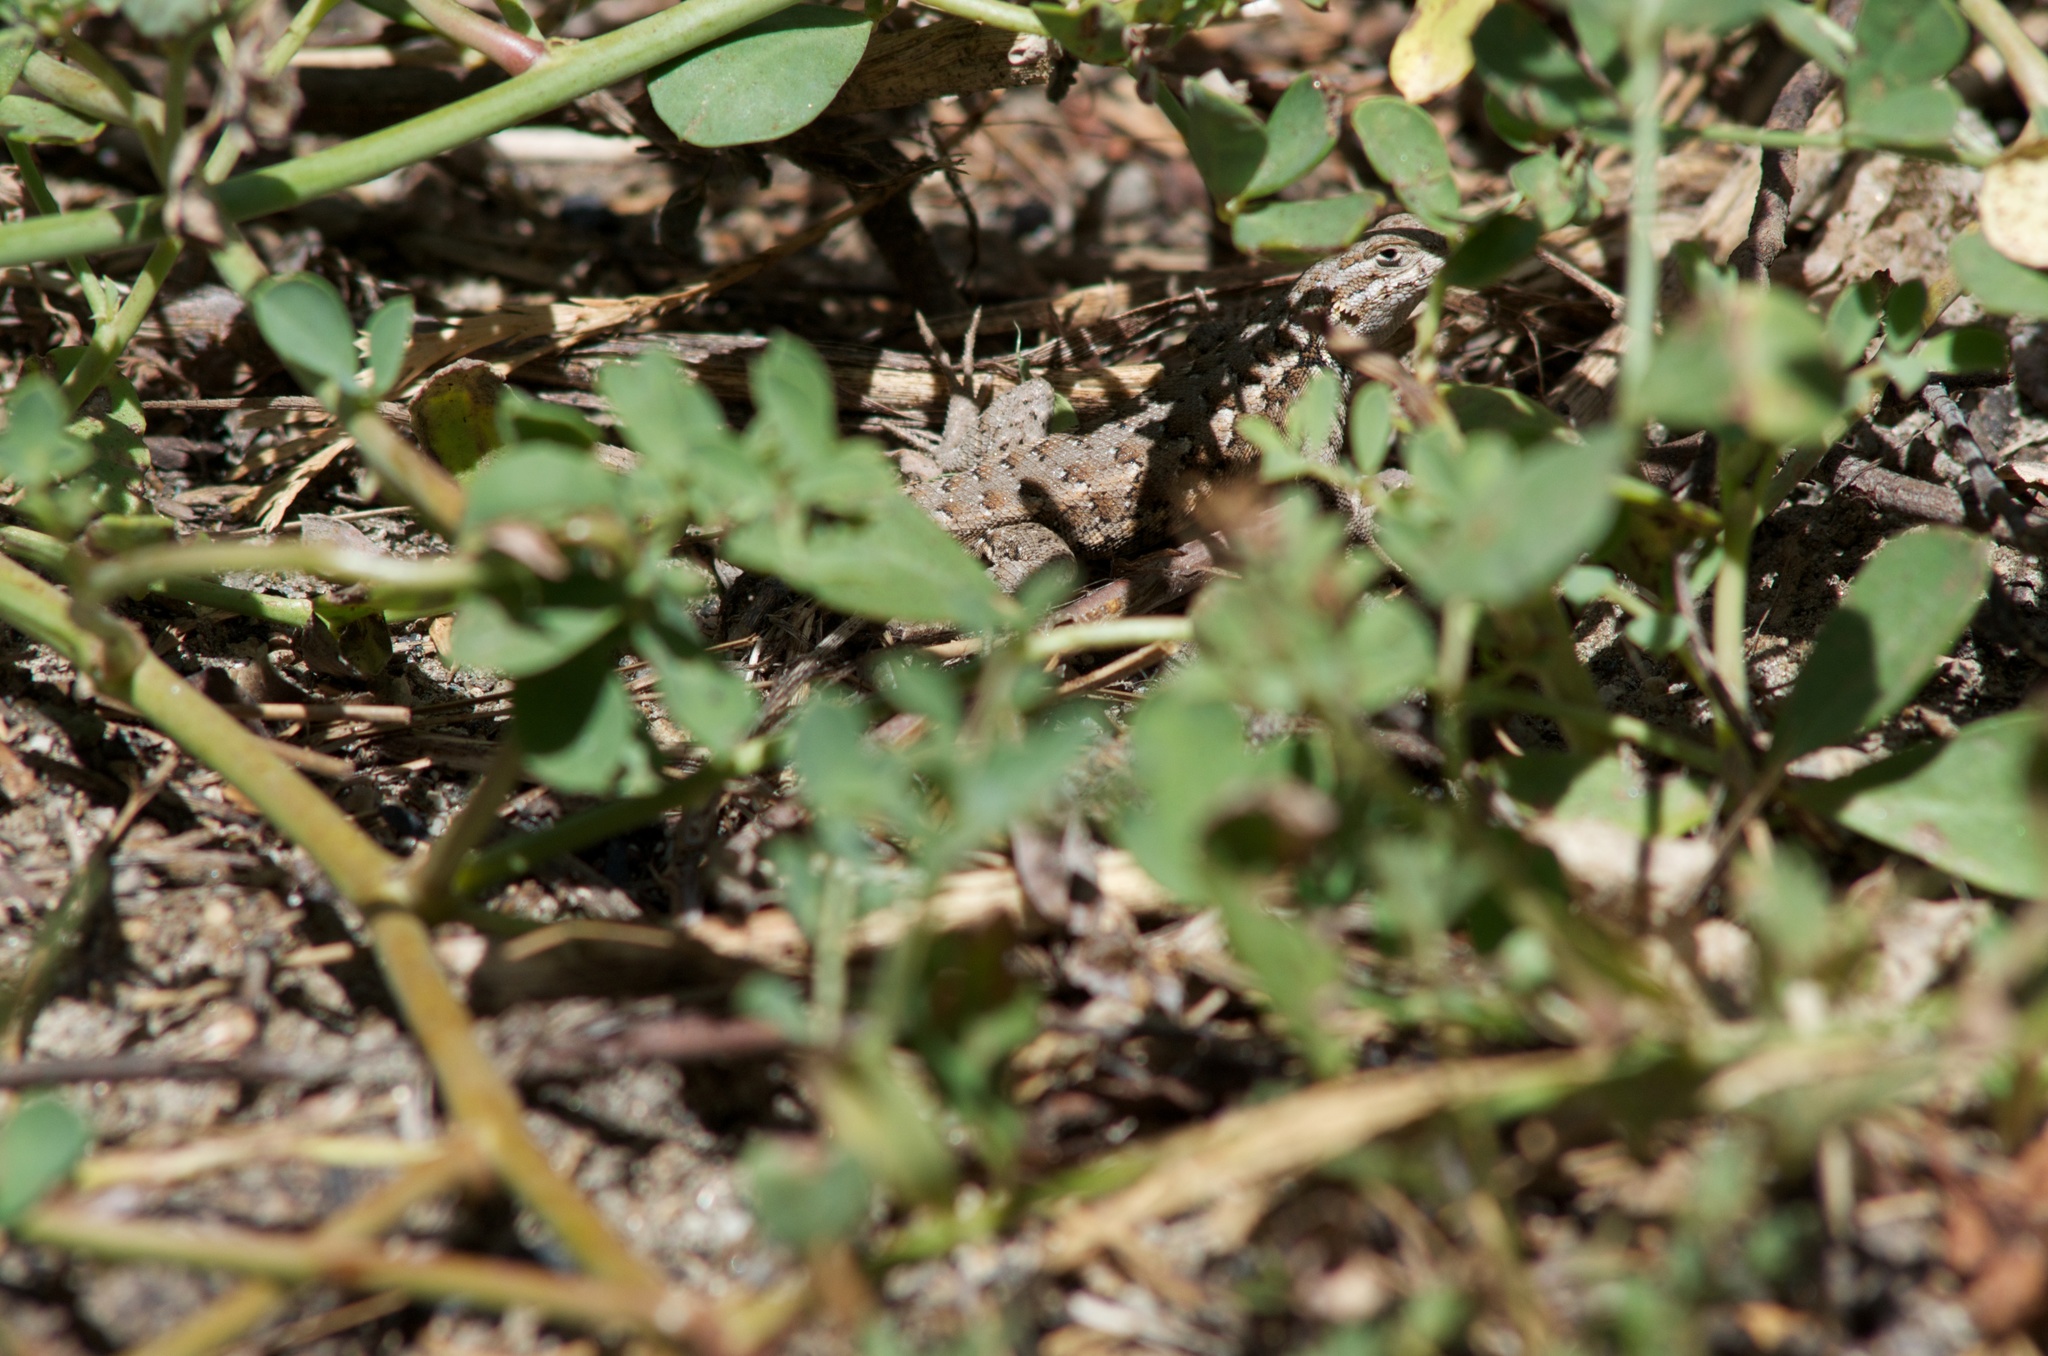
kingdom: Animalia
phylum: Chordata
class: Squamata
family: Phrynosomatidae
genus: Sceloporus
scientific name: Sceloporus graciosus
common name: Sagebrush lizard
